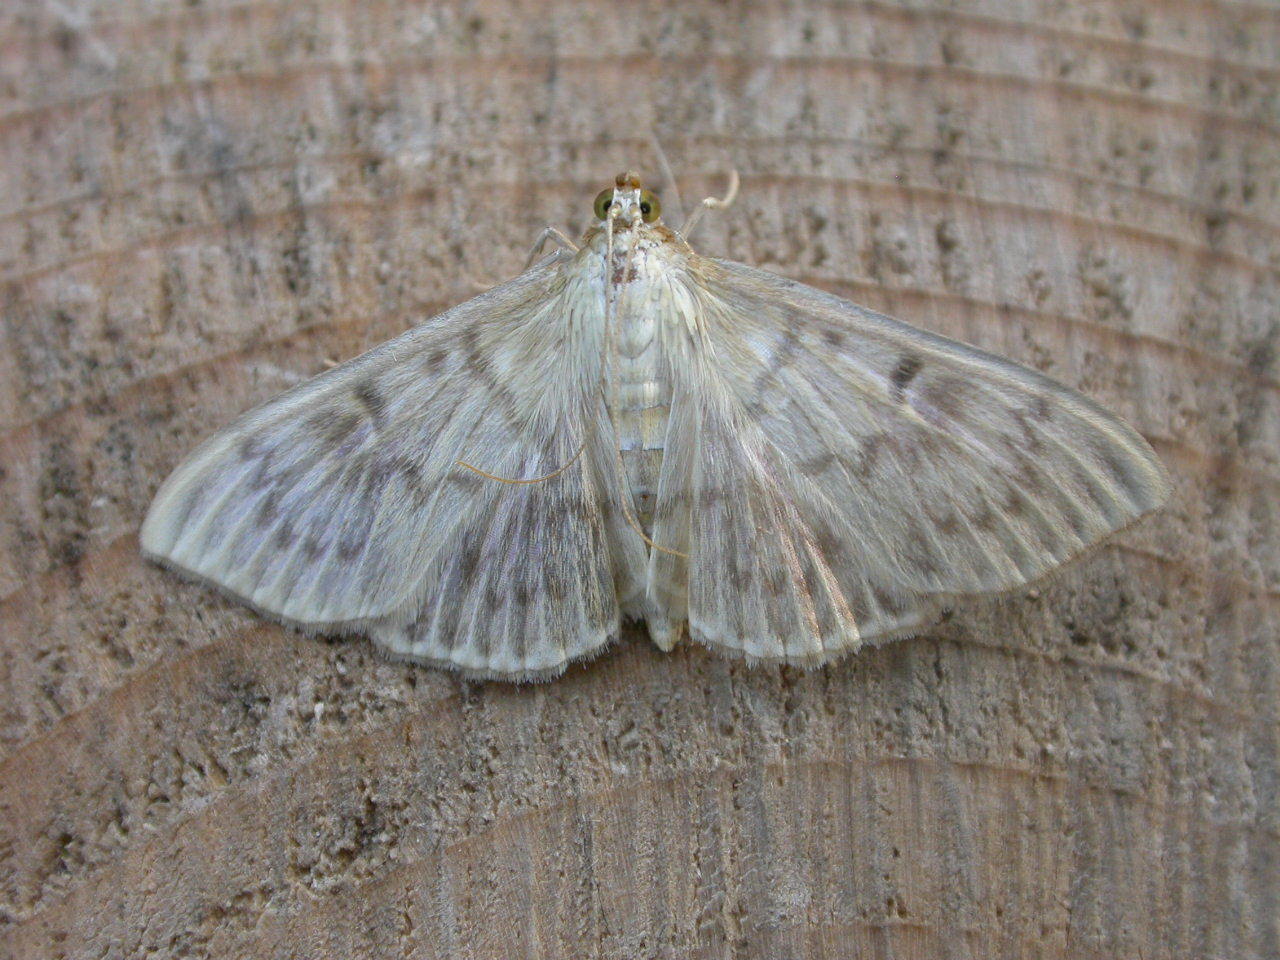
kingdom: Animalia
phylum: Arthropoda
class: Insecta
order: Lepidoptera
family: Crambidae
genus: Patania
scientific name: Patania ruralis
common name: Mother of pearl
